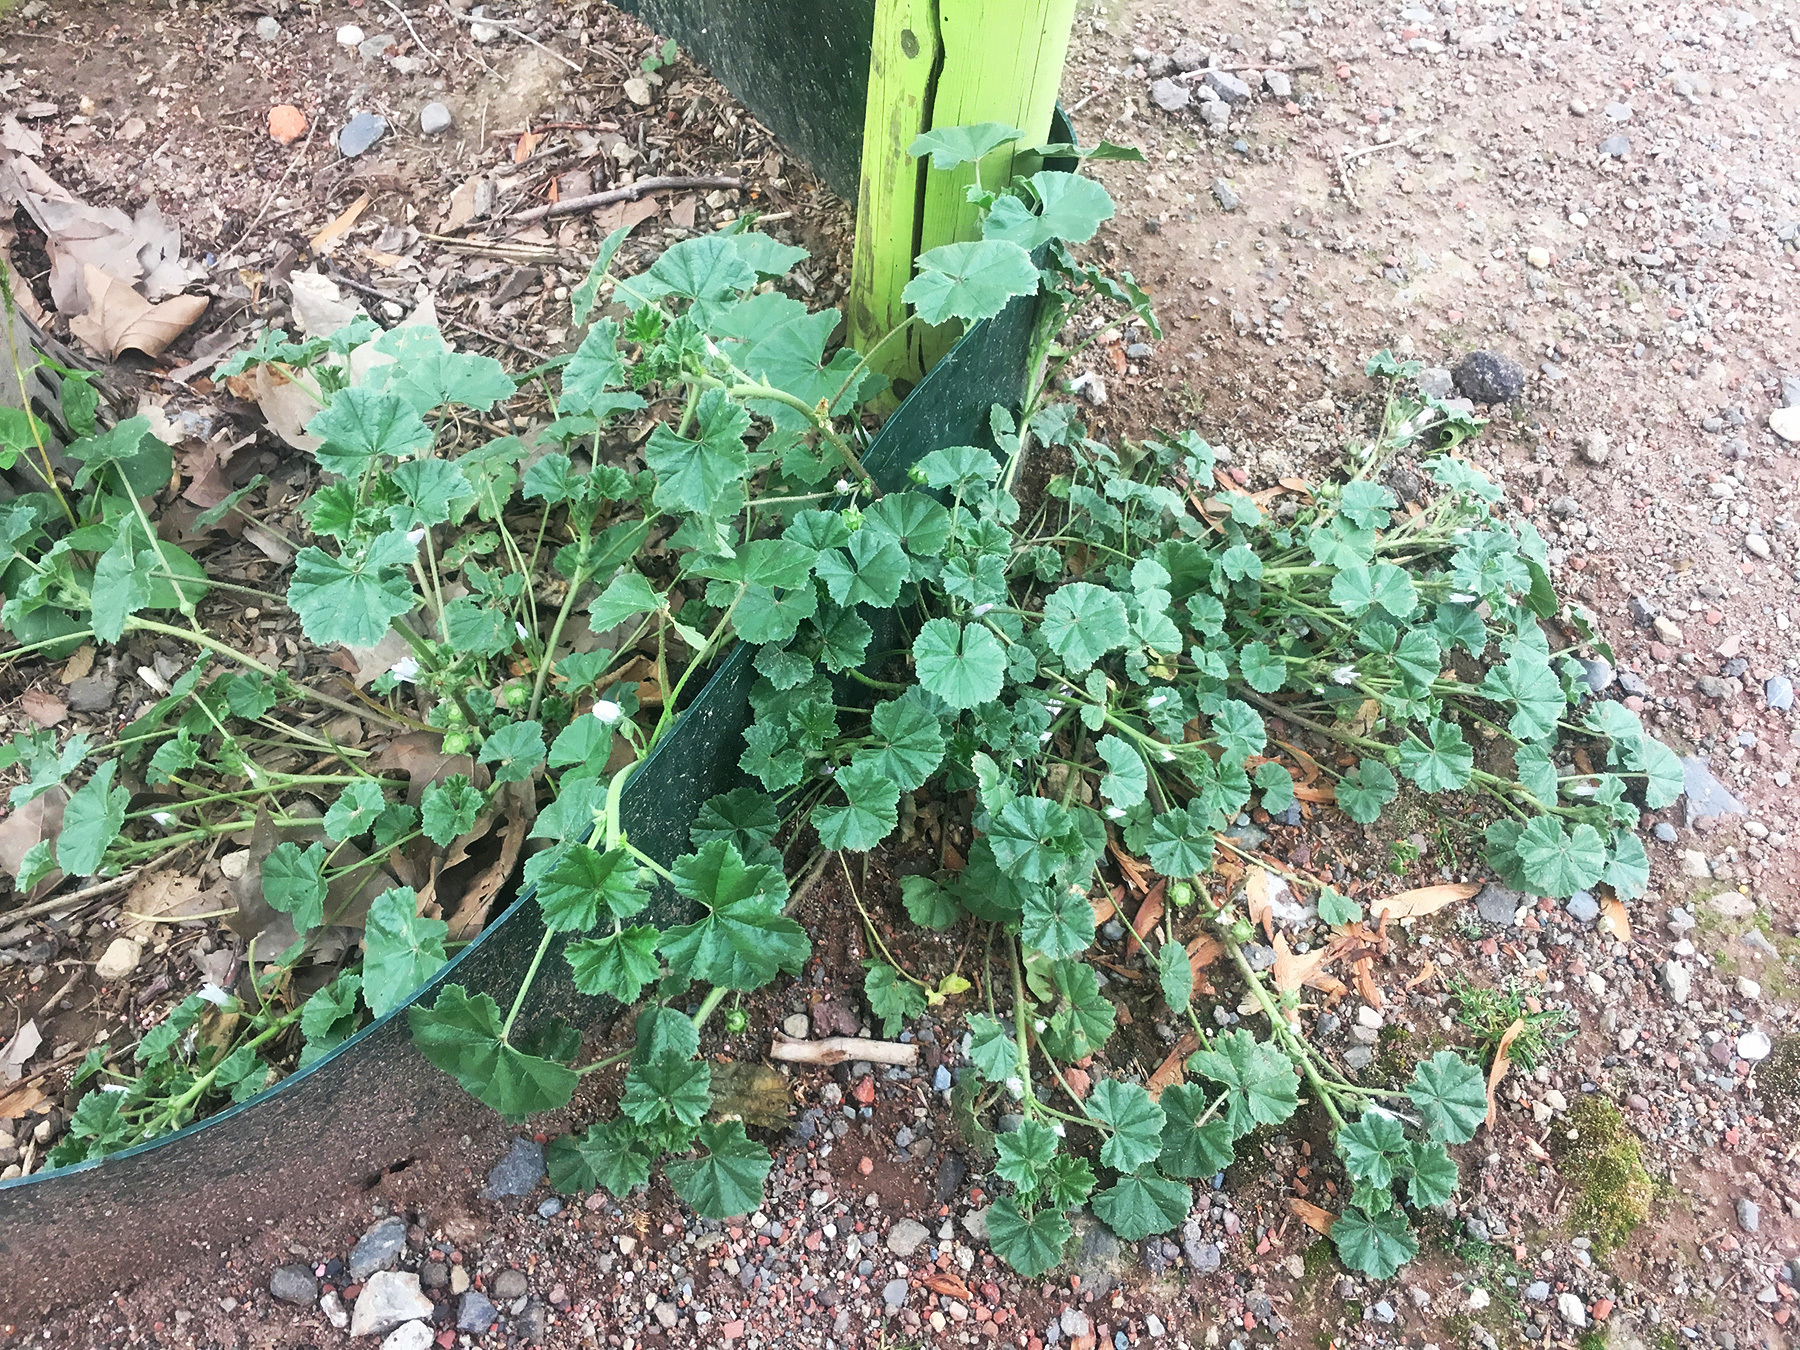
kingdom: Plantae
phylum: Tracheophyta
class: Magnoliopsida
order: Malvales
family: Malvaceae
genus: Malva
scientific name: Malva neglecta
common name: Common mallow
